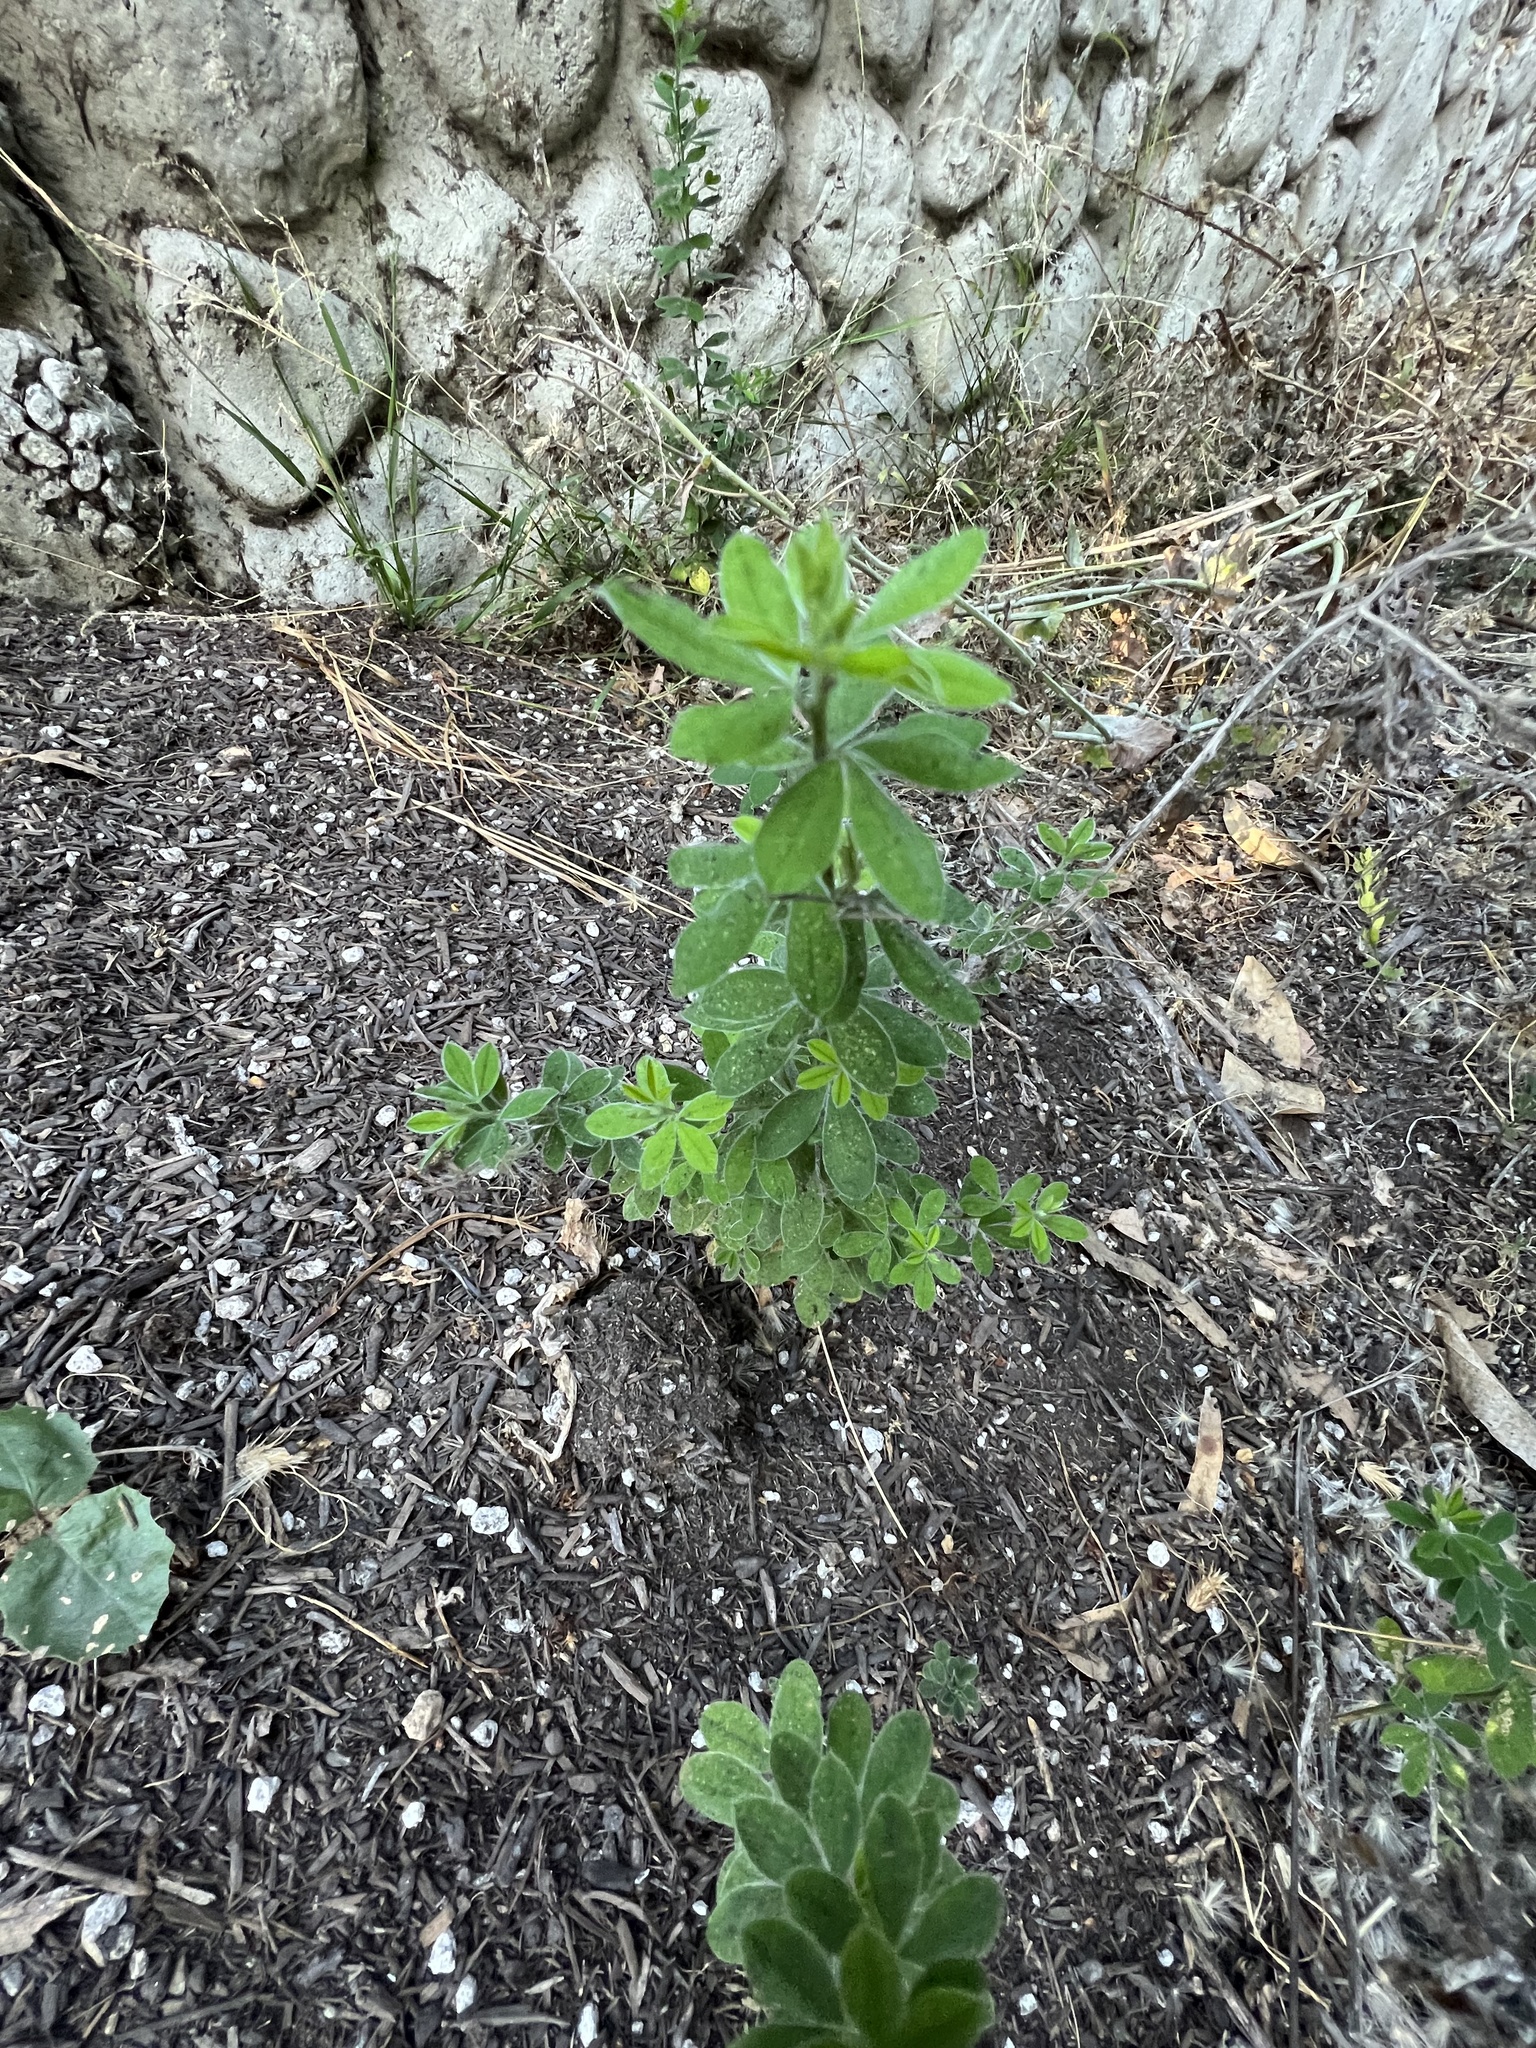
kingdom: Plantae
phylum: Tracheophyta
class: Magnoliopsida
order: Fabales
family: Fabaceae
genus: Genista
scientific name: Genista monspessulana
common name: Montpellier broom
